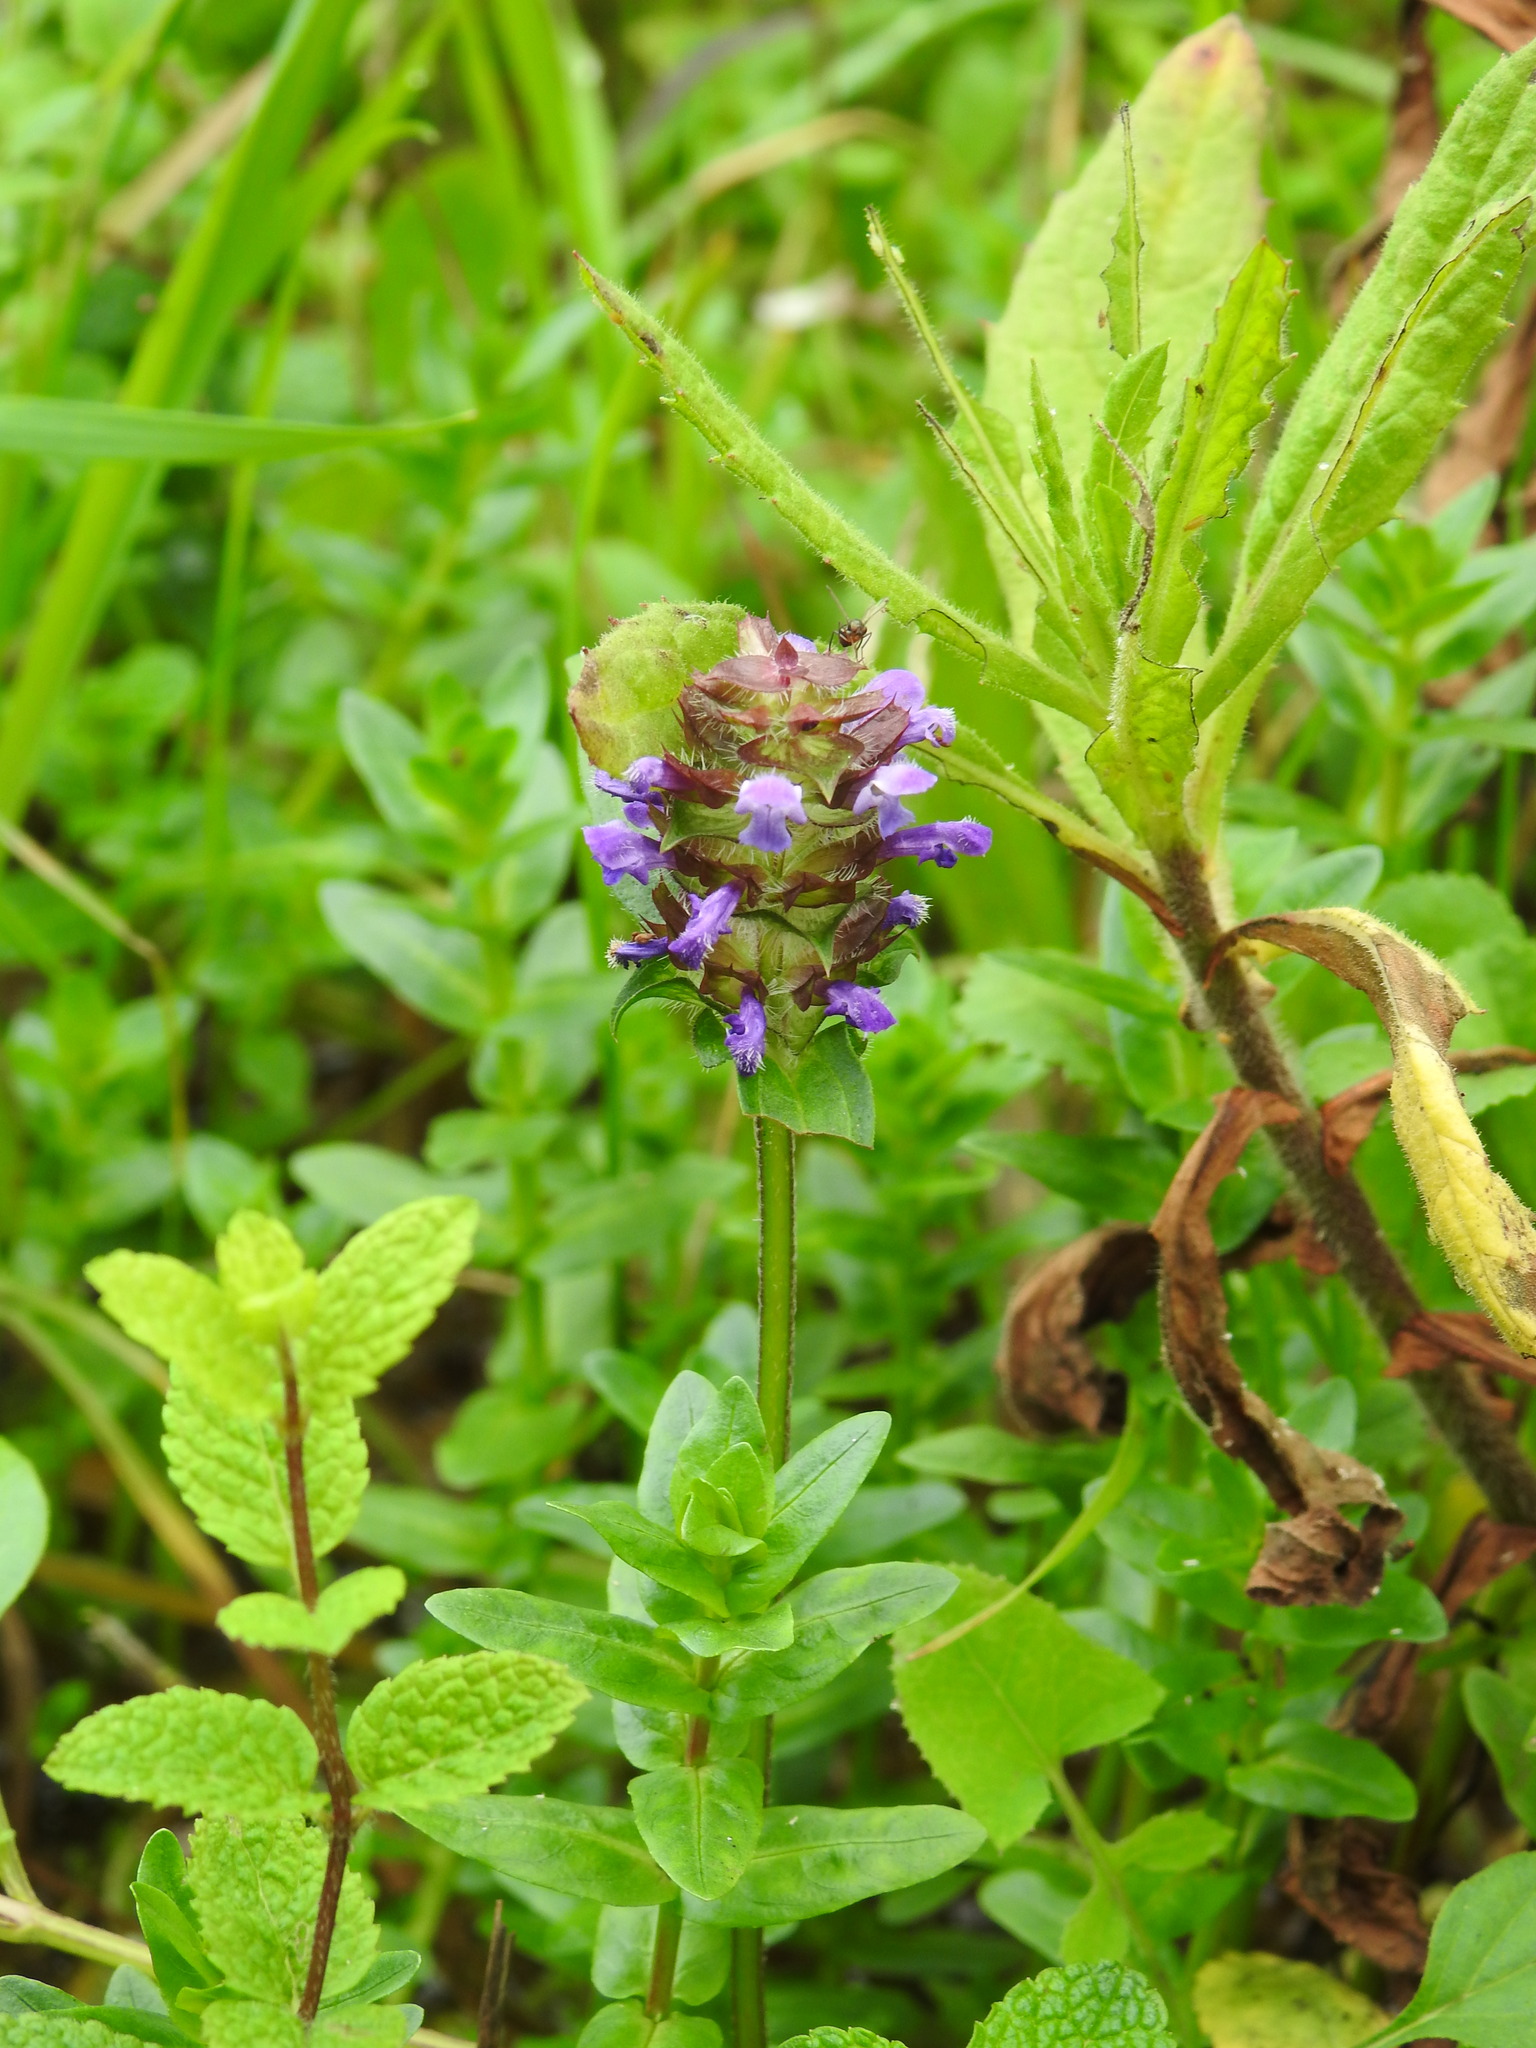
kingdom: Plantae
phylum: Tracheophyta
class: Magnoliopsida
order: Lamiales
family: Lamiaceae
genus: Prunella
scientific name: Prunella vulgaris
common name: Heal-all
